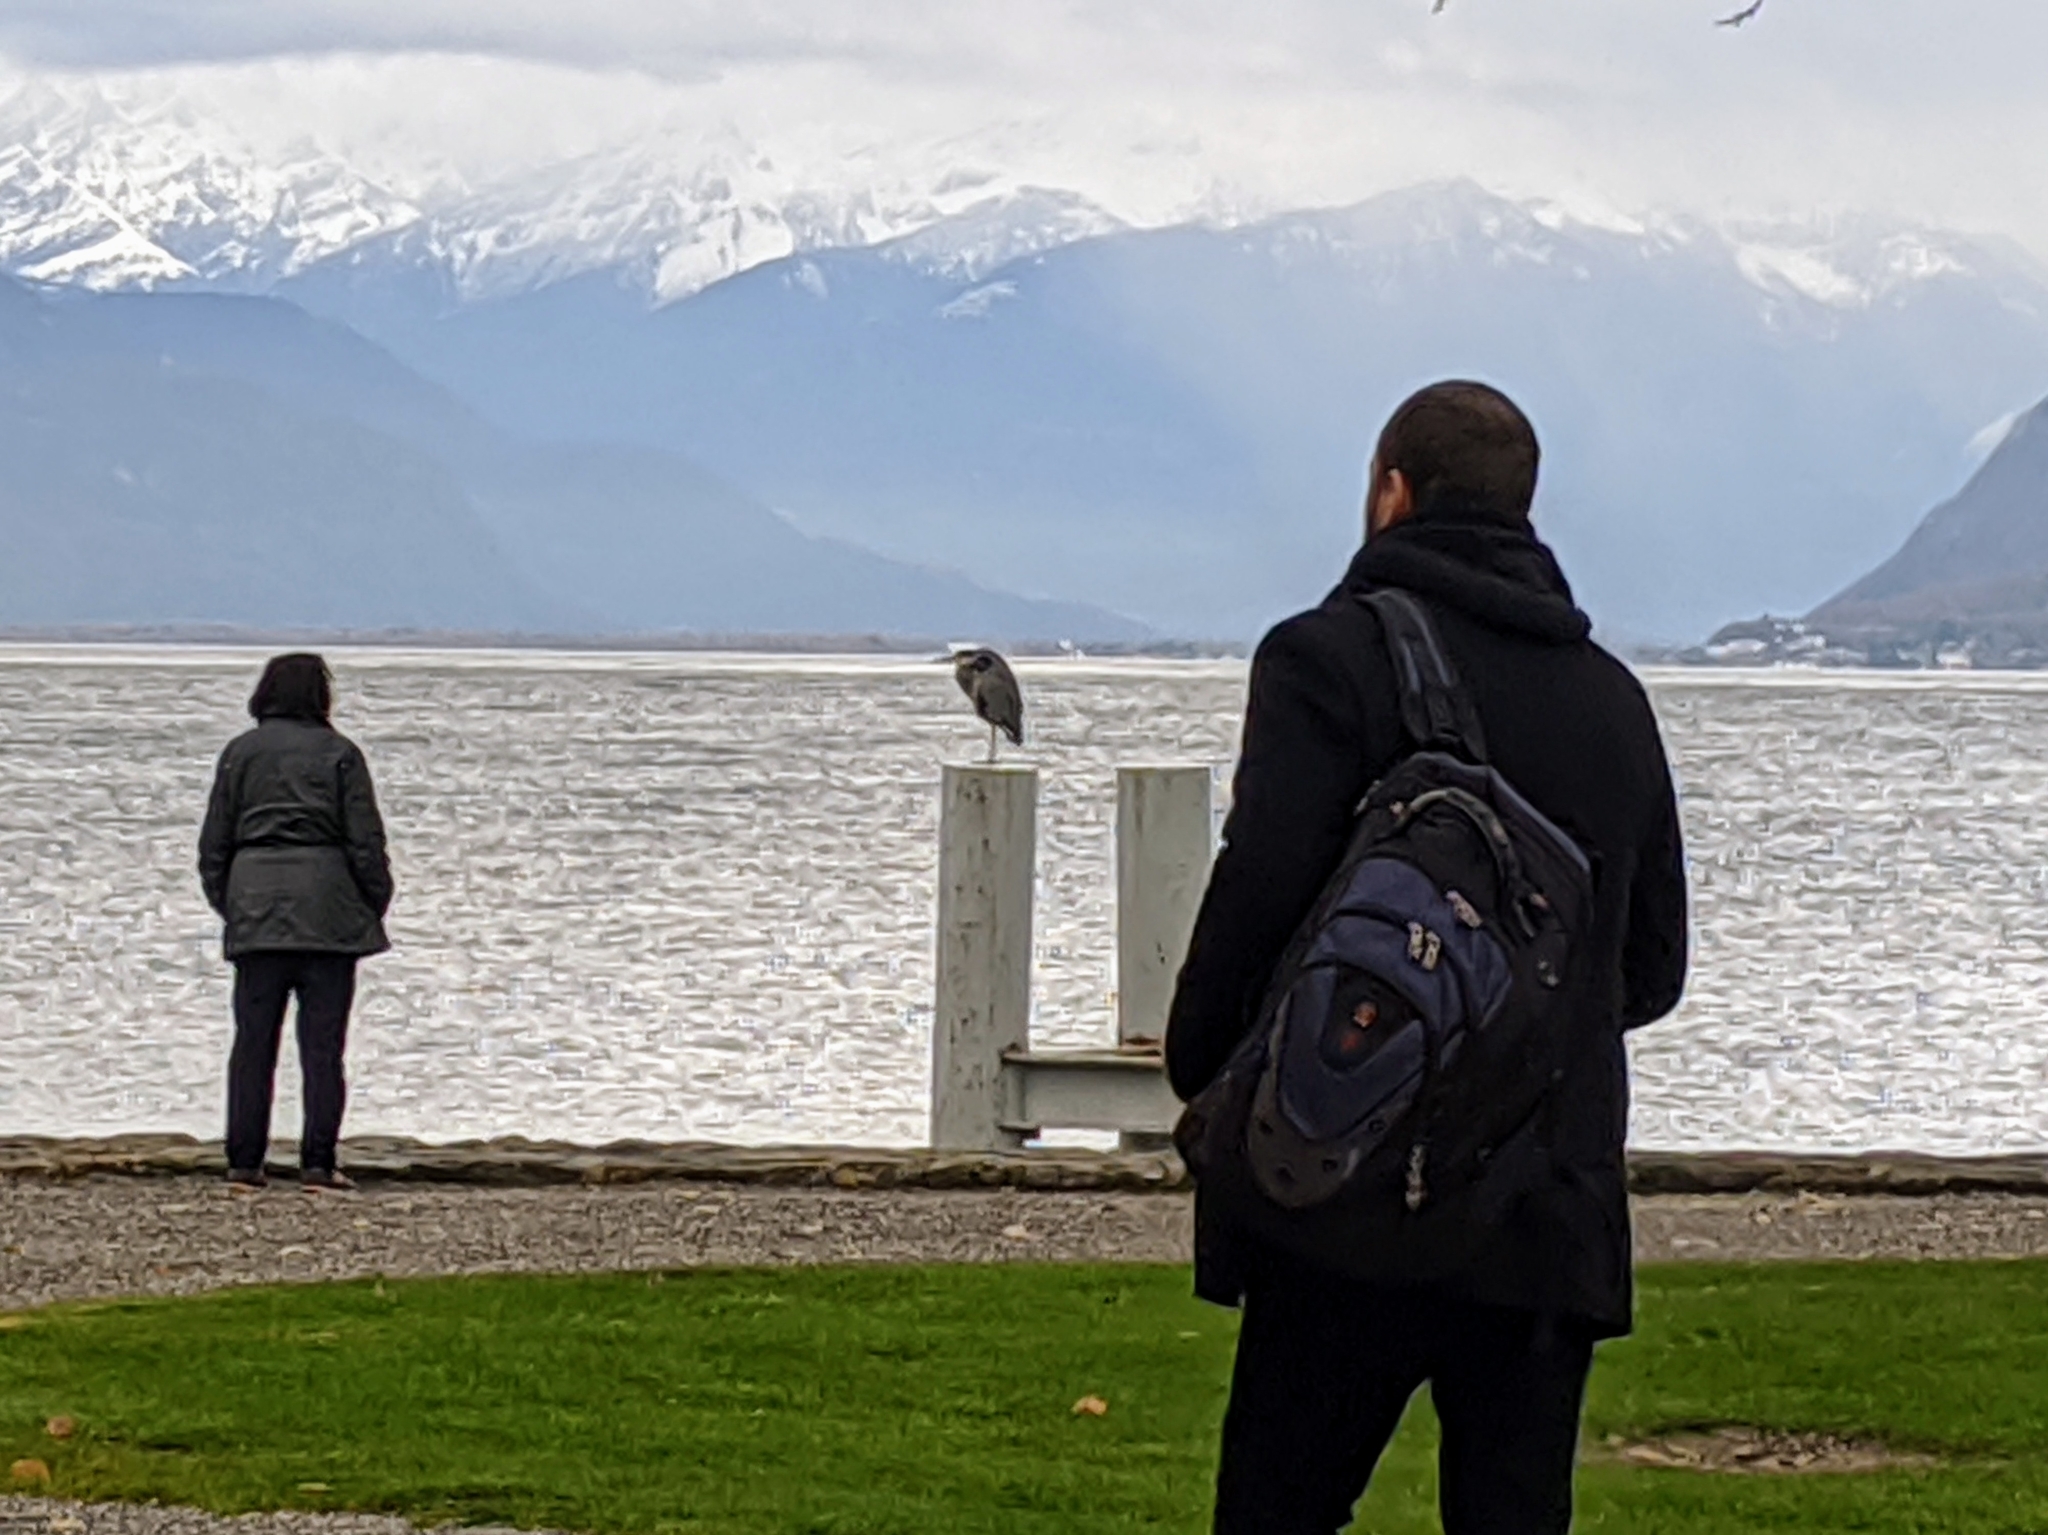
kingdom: Animalia
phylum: Chordata
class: Aves
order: Pelecaniformes
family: Ardeidae
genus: Ardea
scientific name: Ardea cinerea
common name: Grey heron
